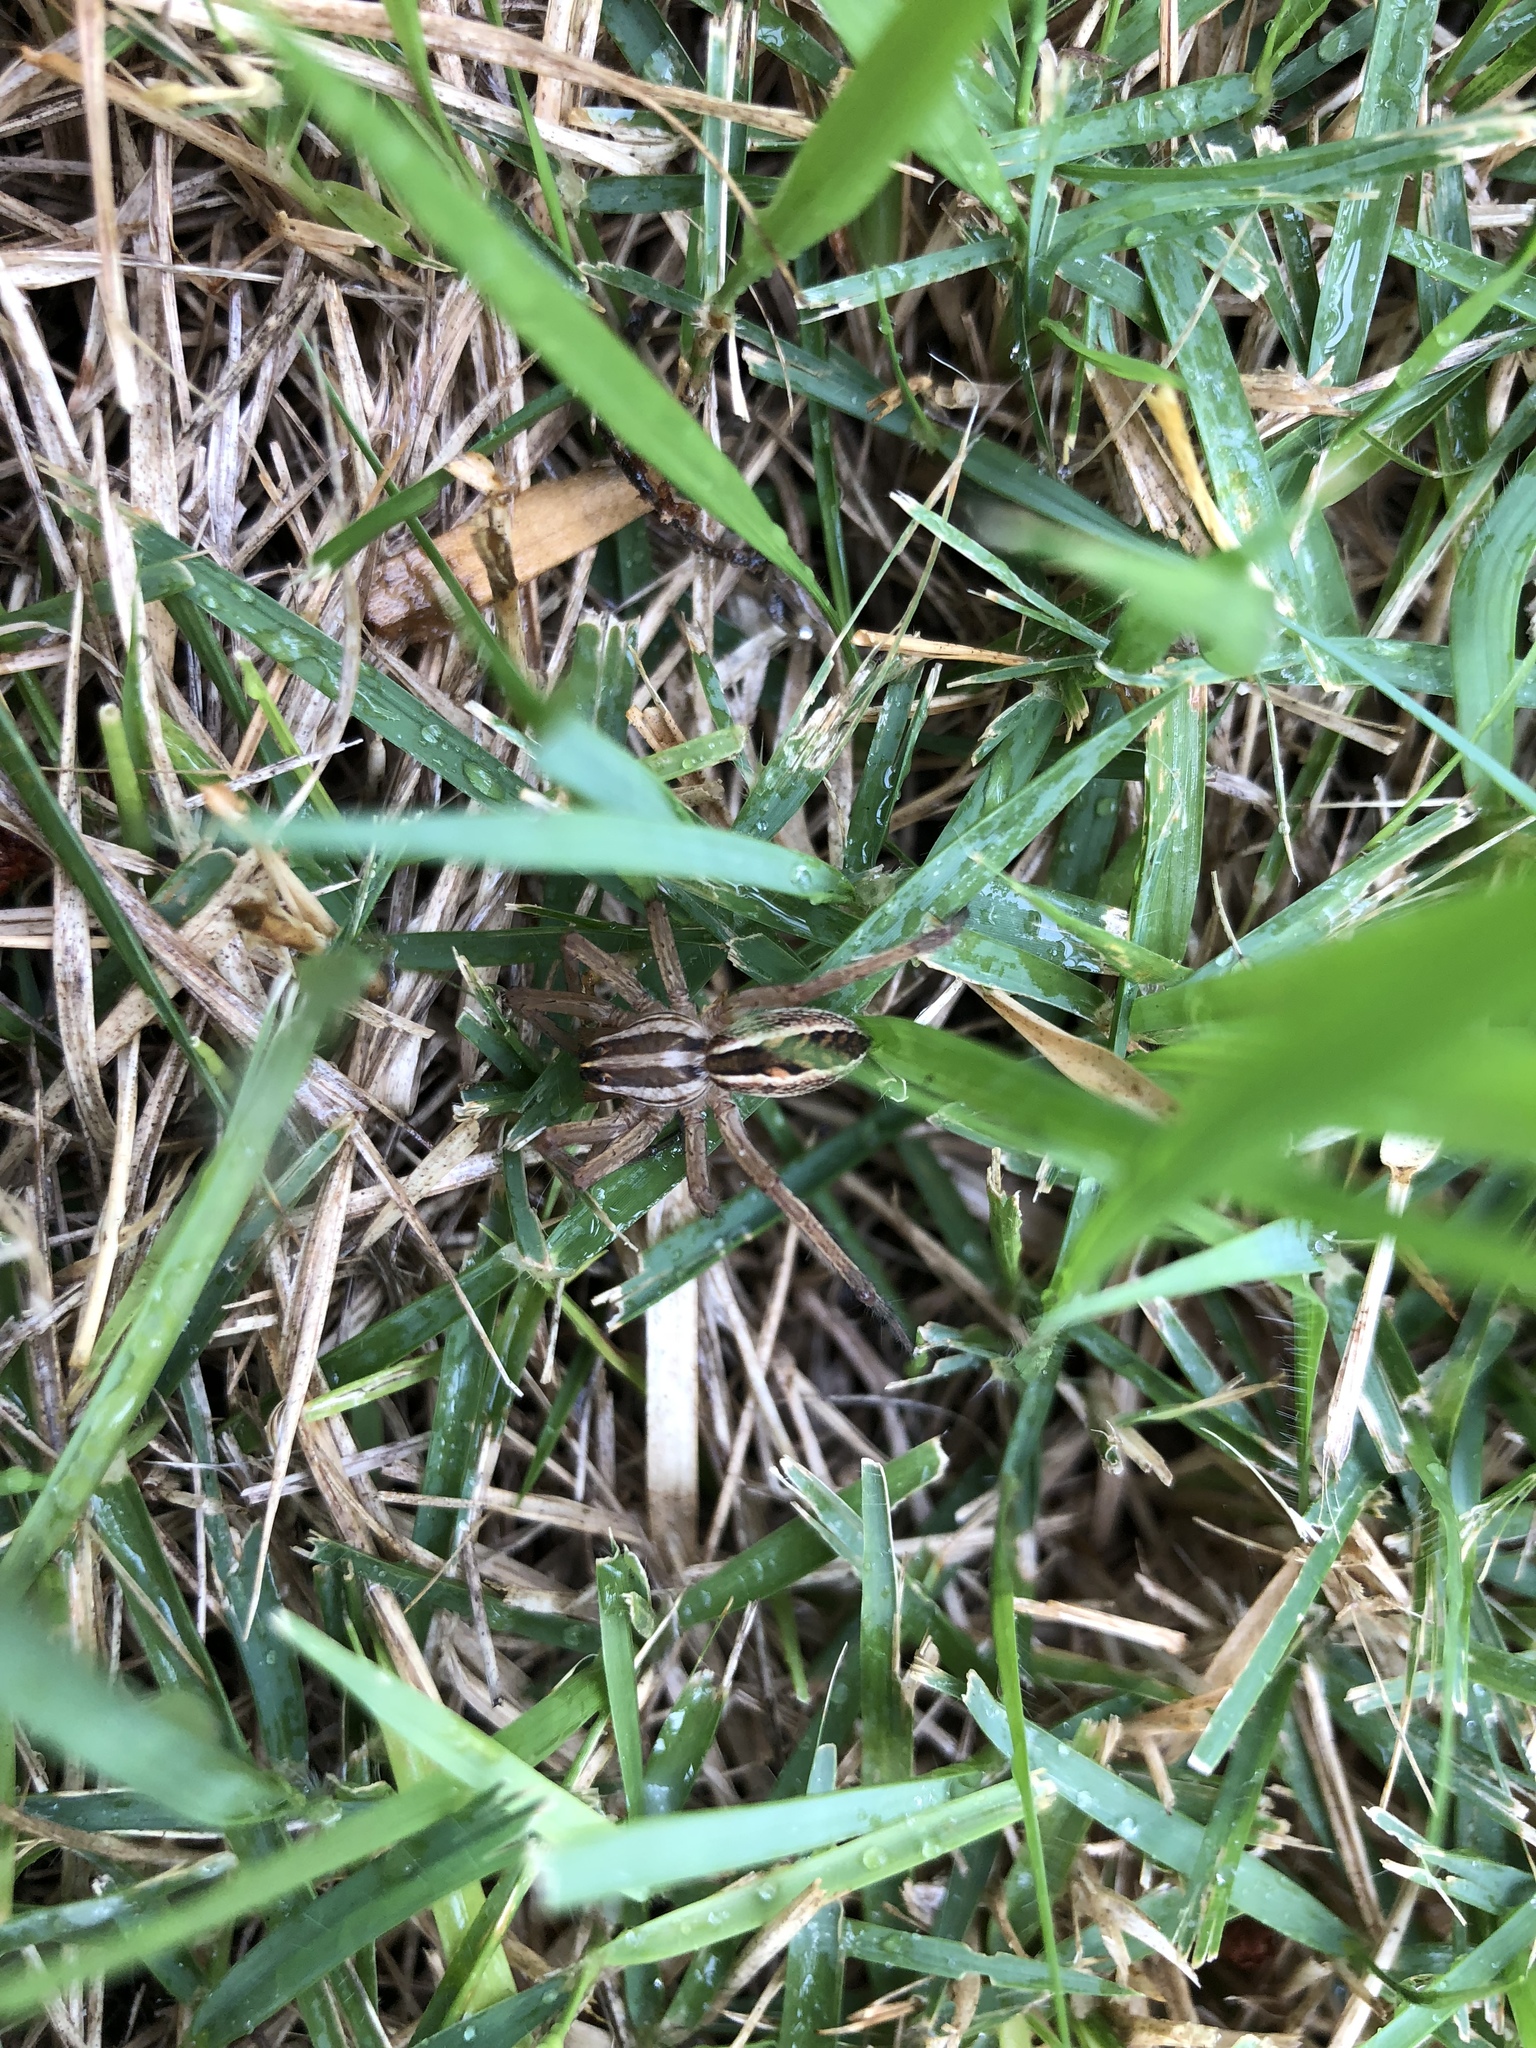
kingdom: Animalia
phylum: Arthropoda
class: Arachnida
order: Araneae
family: Lycosidae
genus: Rabidosa
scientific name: Rabidosa rabida
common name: Rabid wolf spider
